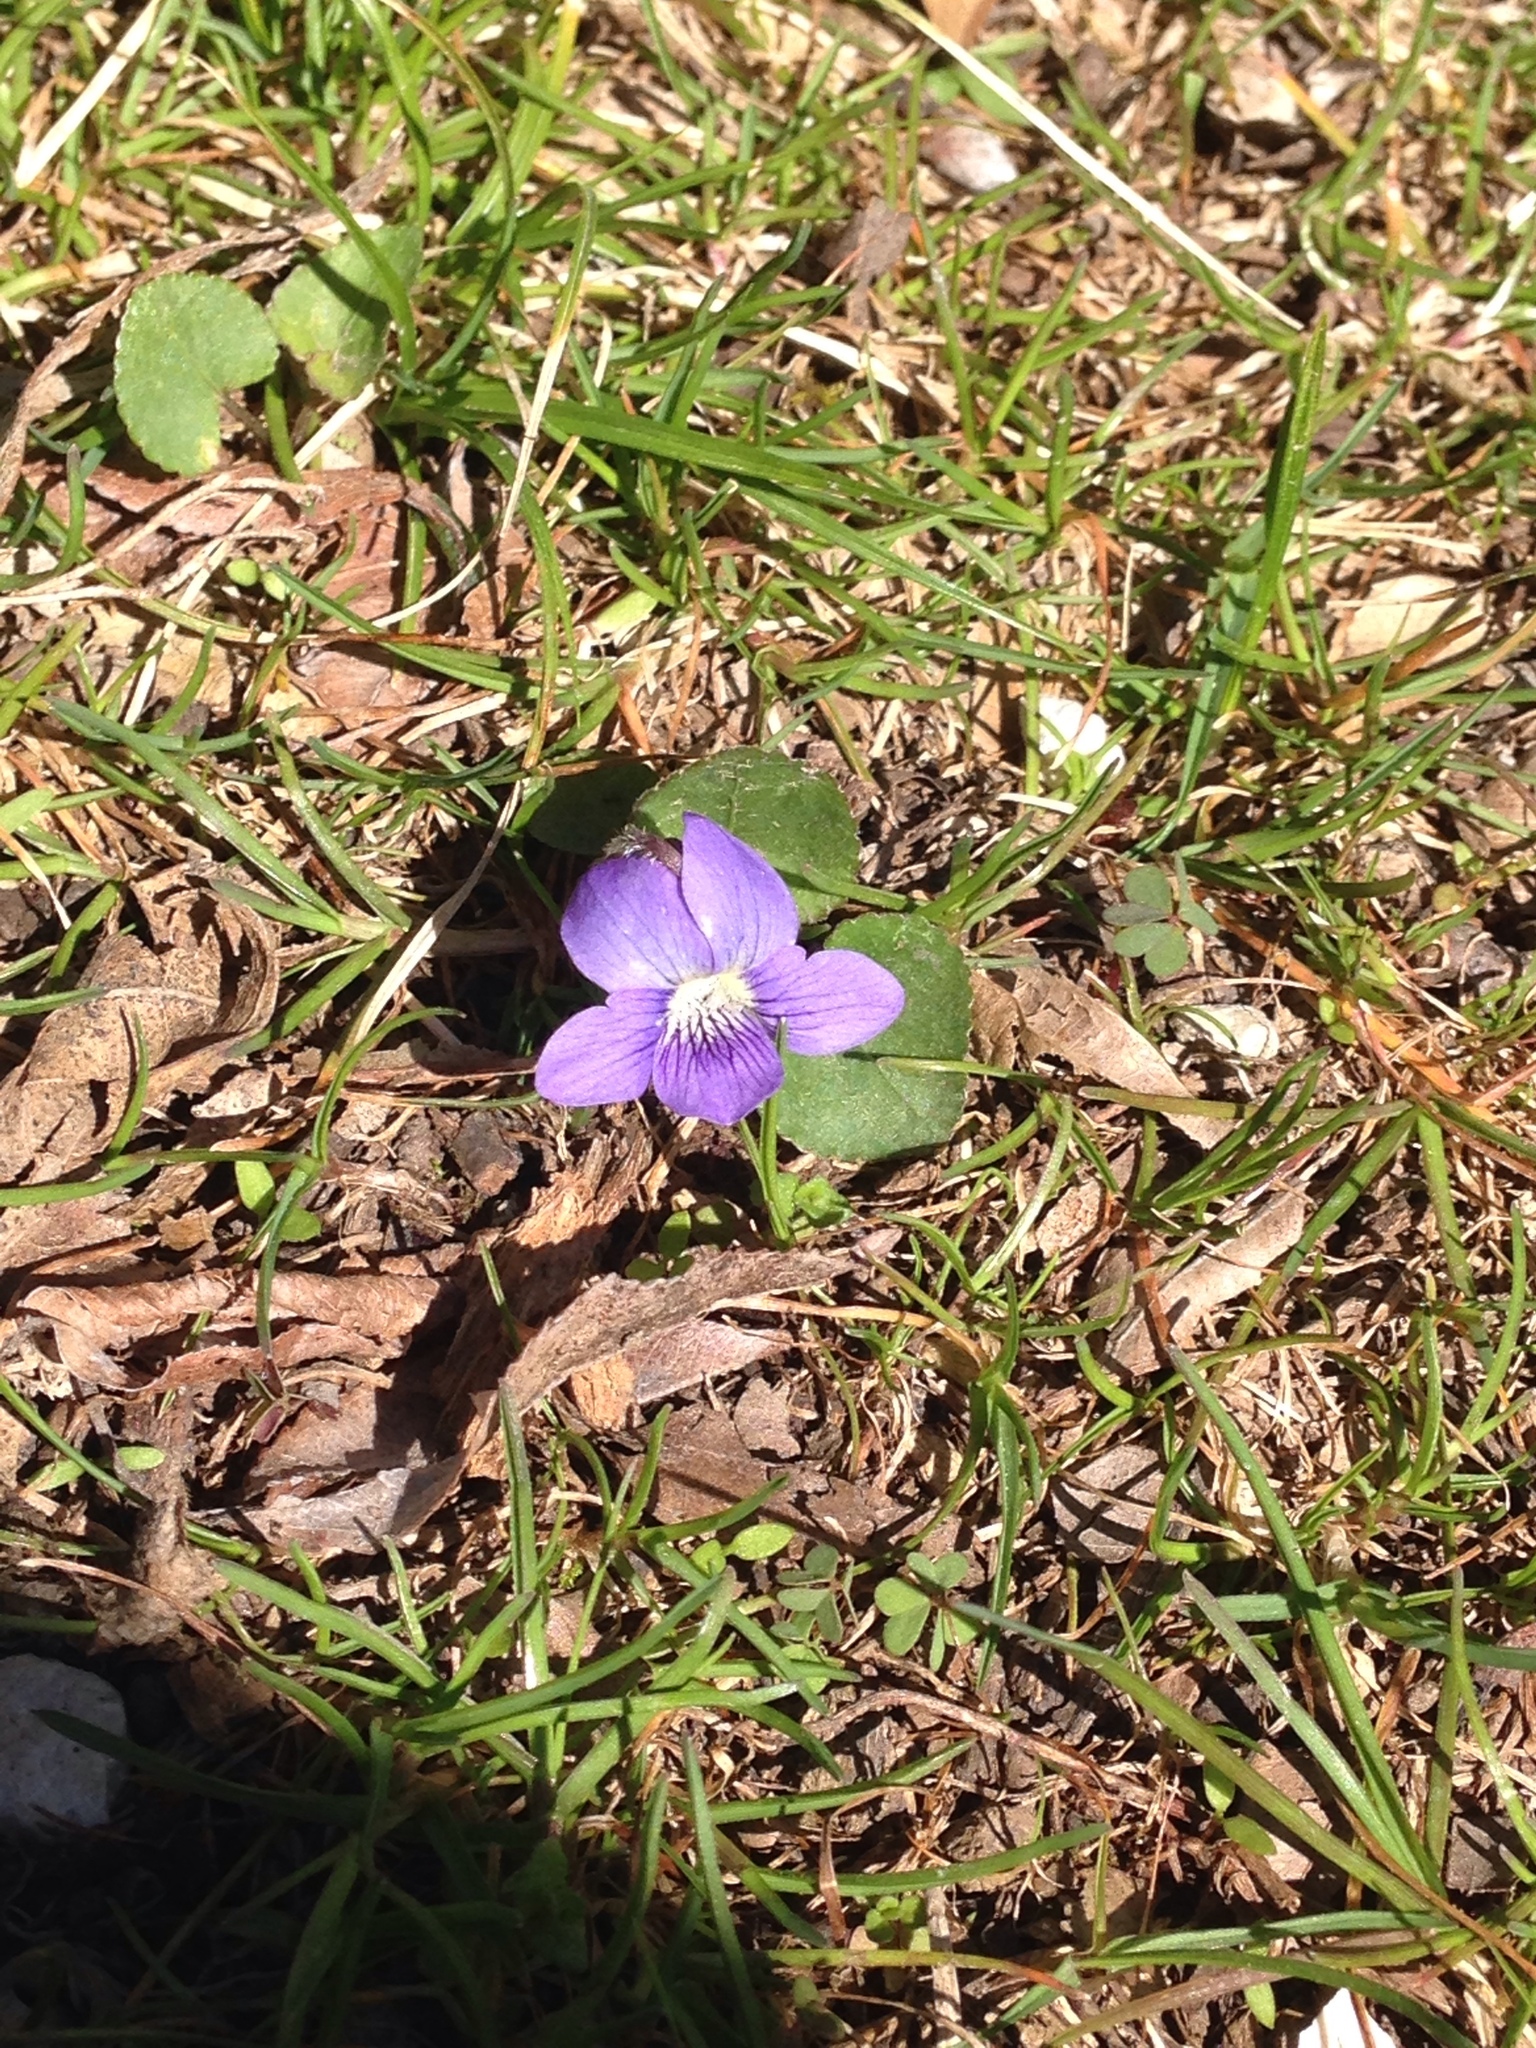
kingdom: Plantae
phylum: Tracheophyta
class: Magnoliopsida
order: Malpighiales
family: Violaceae
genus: Viola
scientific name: Viola sororia
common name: Dooryard violet
